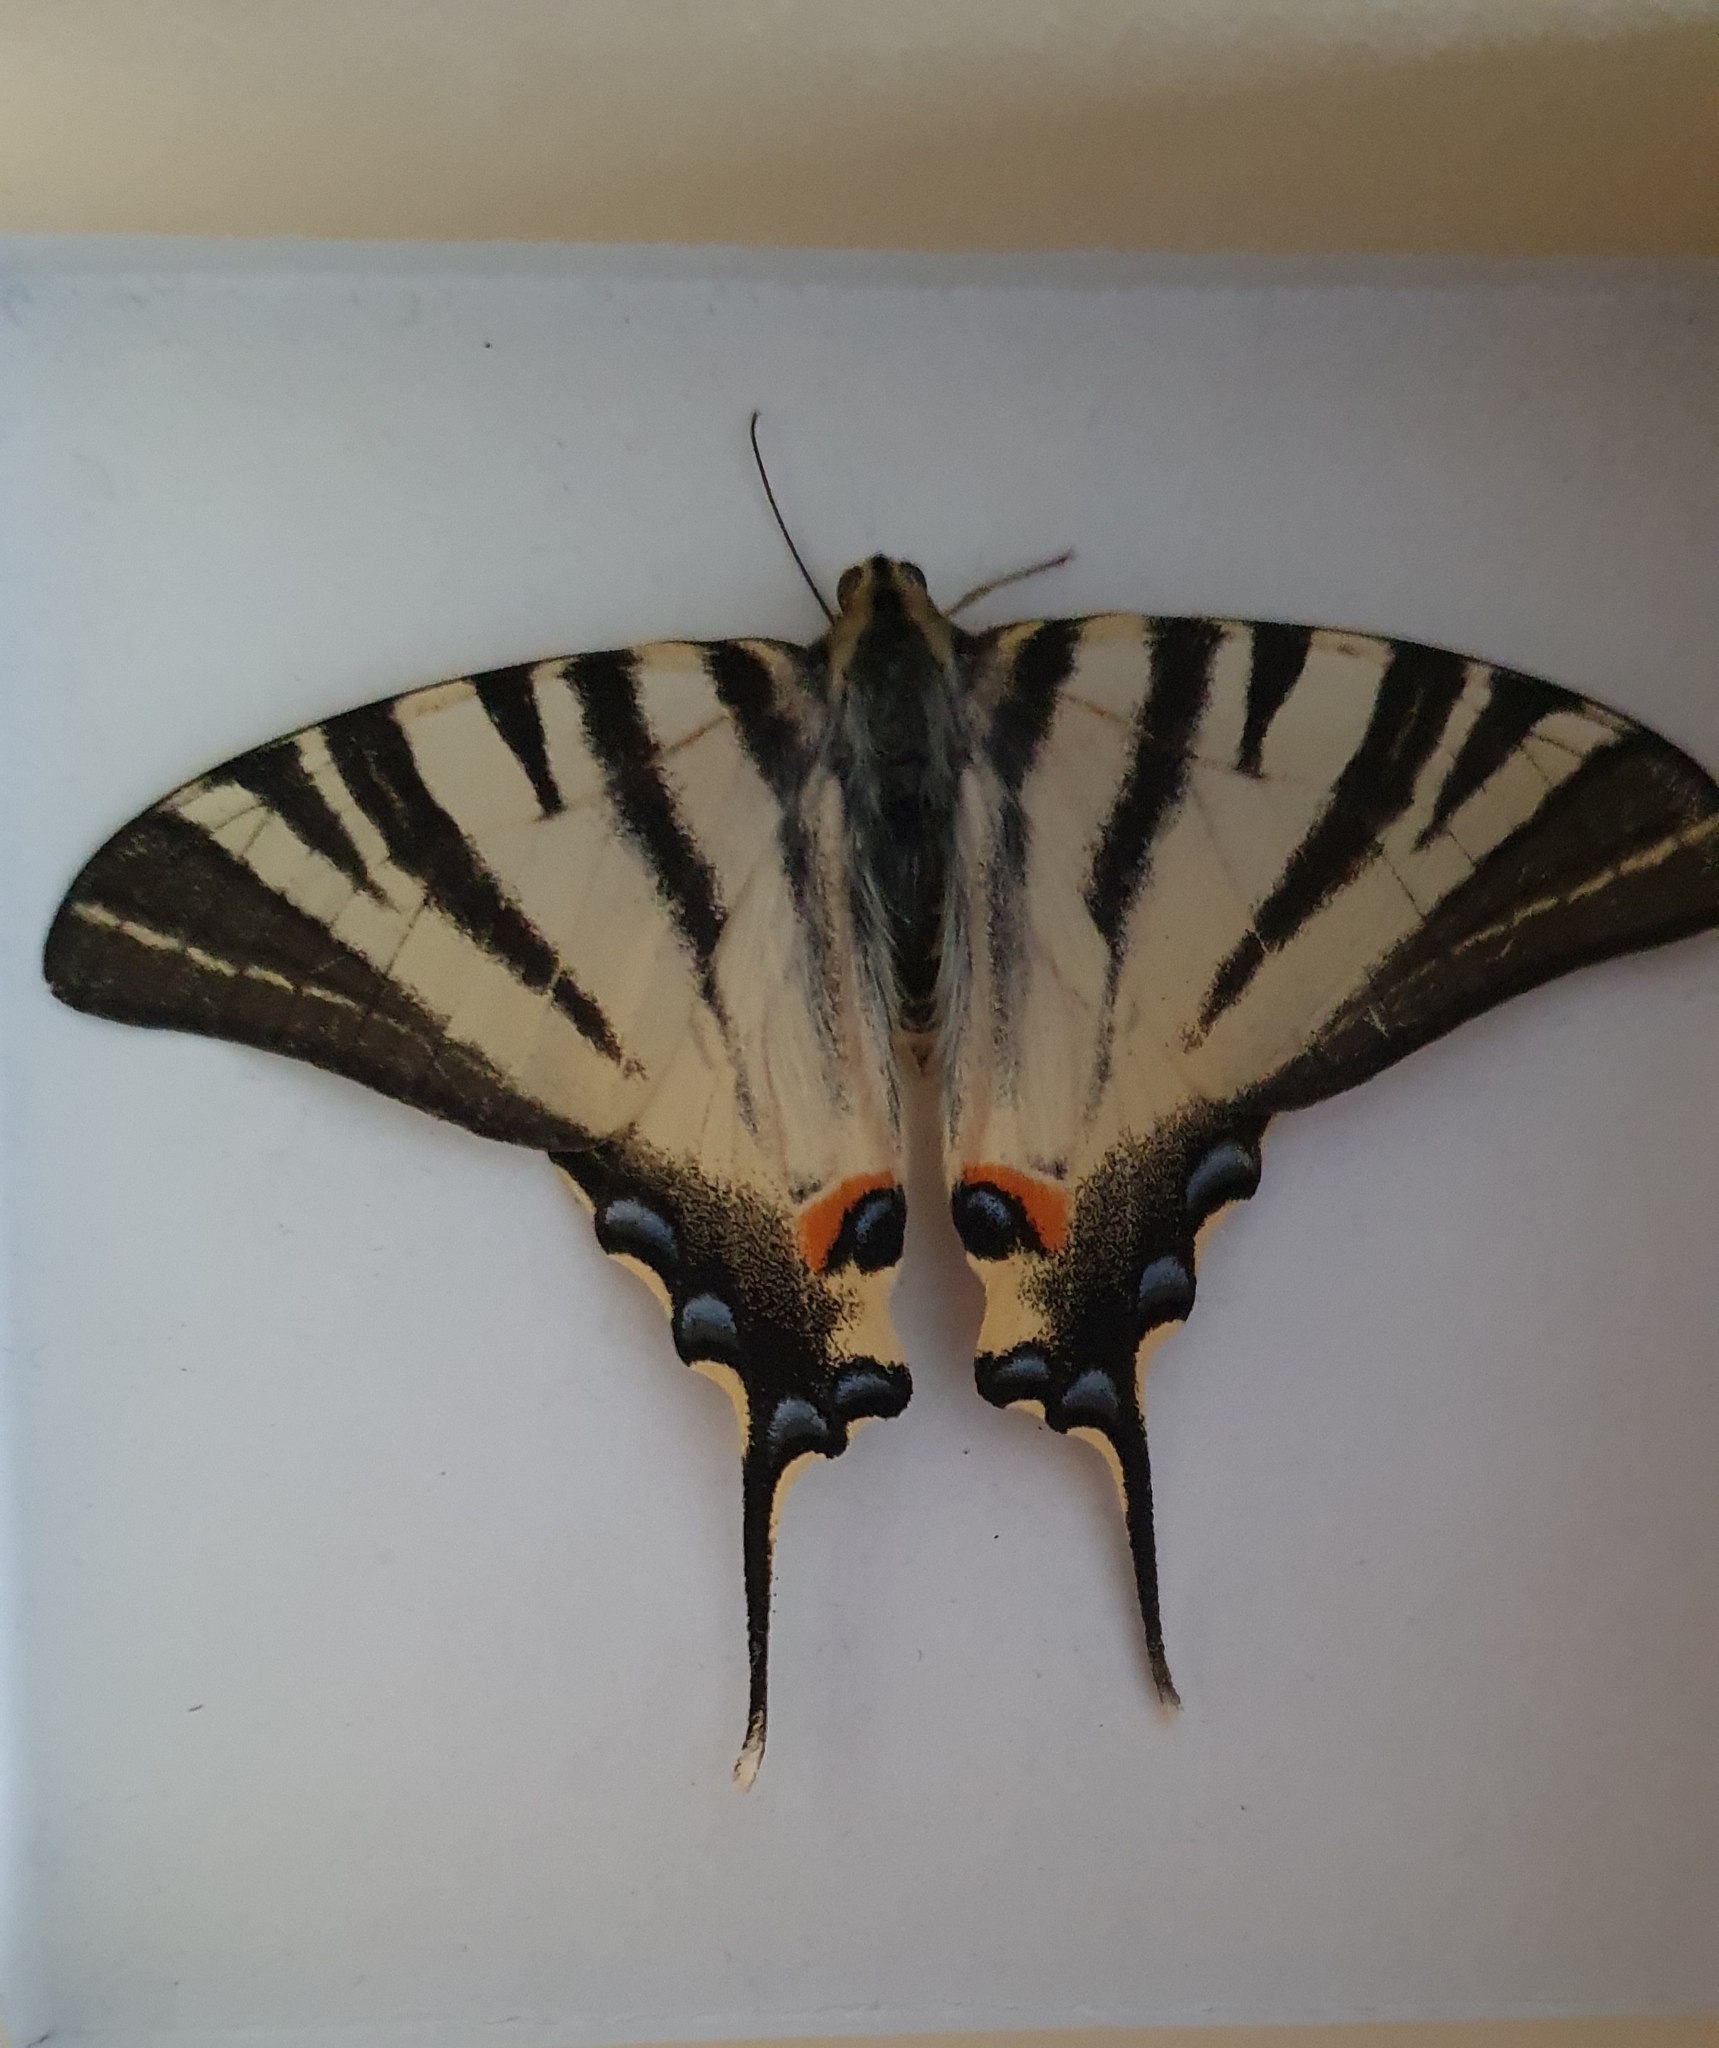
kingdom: Animalia
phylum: Arthropoda
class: Insecta
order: Lepidoptera
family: Papilionidae
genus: Iphiclides
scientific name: Iphiclides podalirius
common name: Scarce swallowtail
